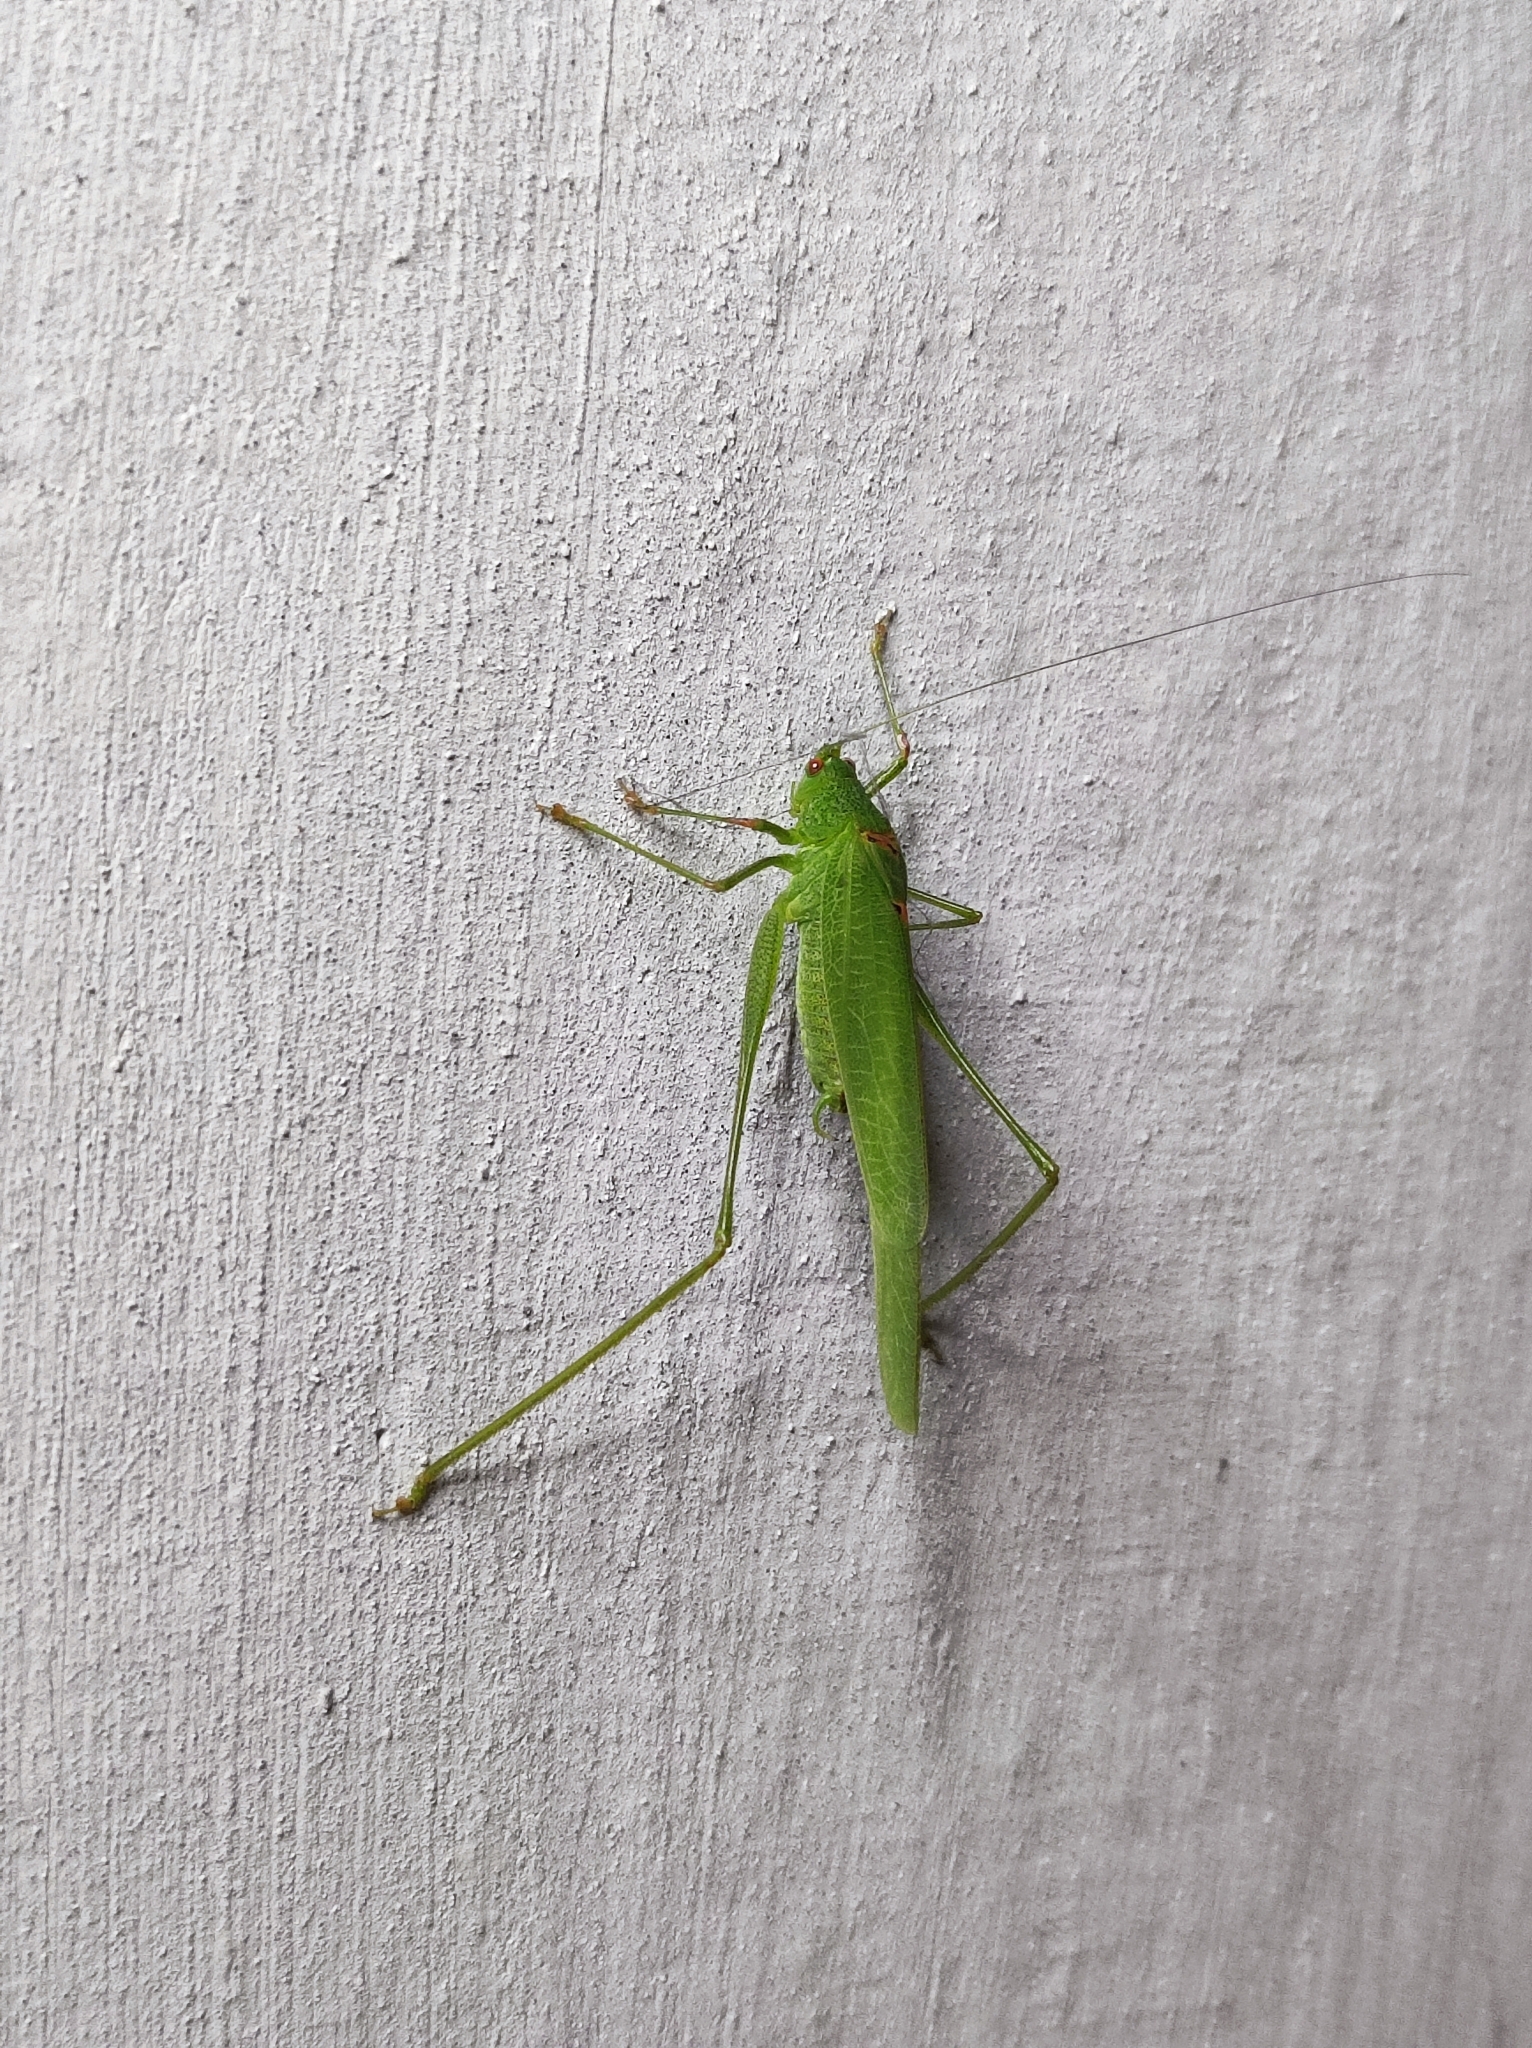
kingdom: Animalia
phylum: Arthropoda
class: Insecta
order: Orthoptera
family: Tettigoniidae
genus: Phaneroptera
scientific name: Phaneroptera nana
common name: Southern sickle bush-cricket
